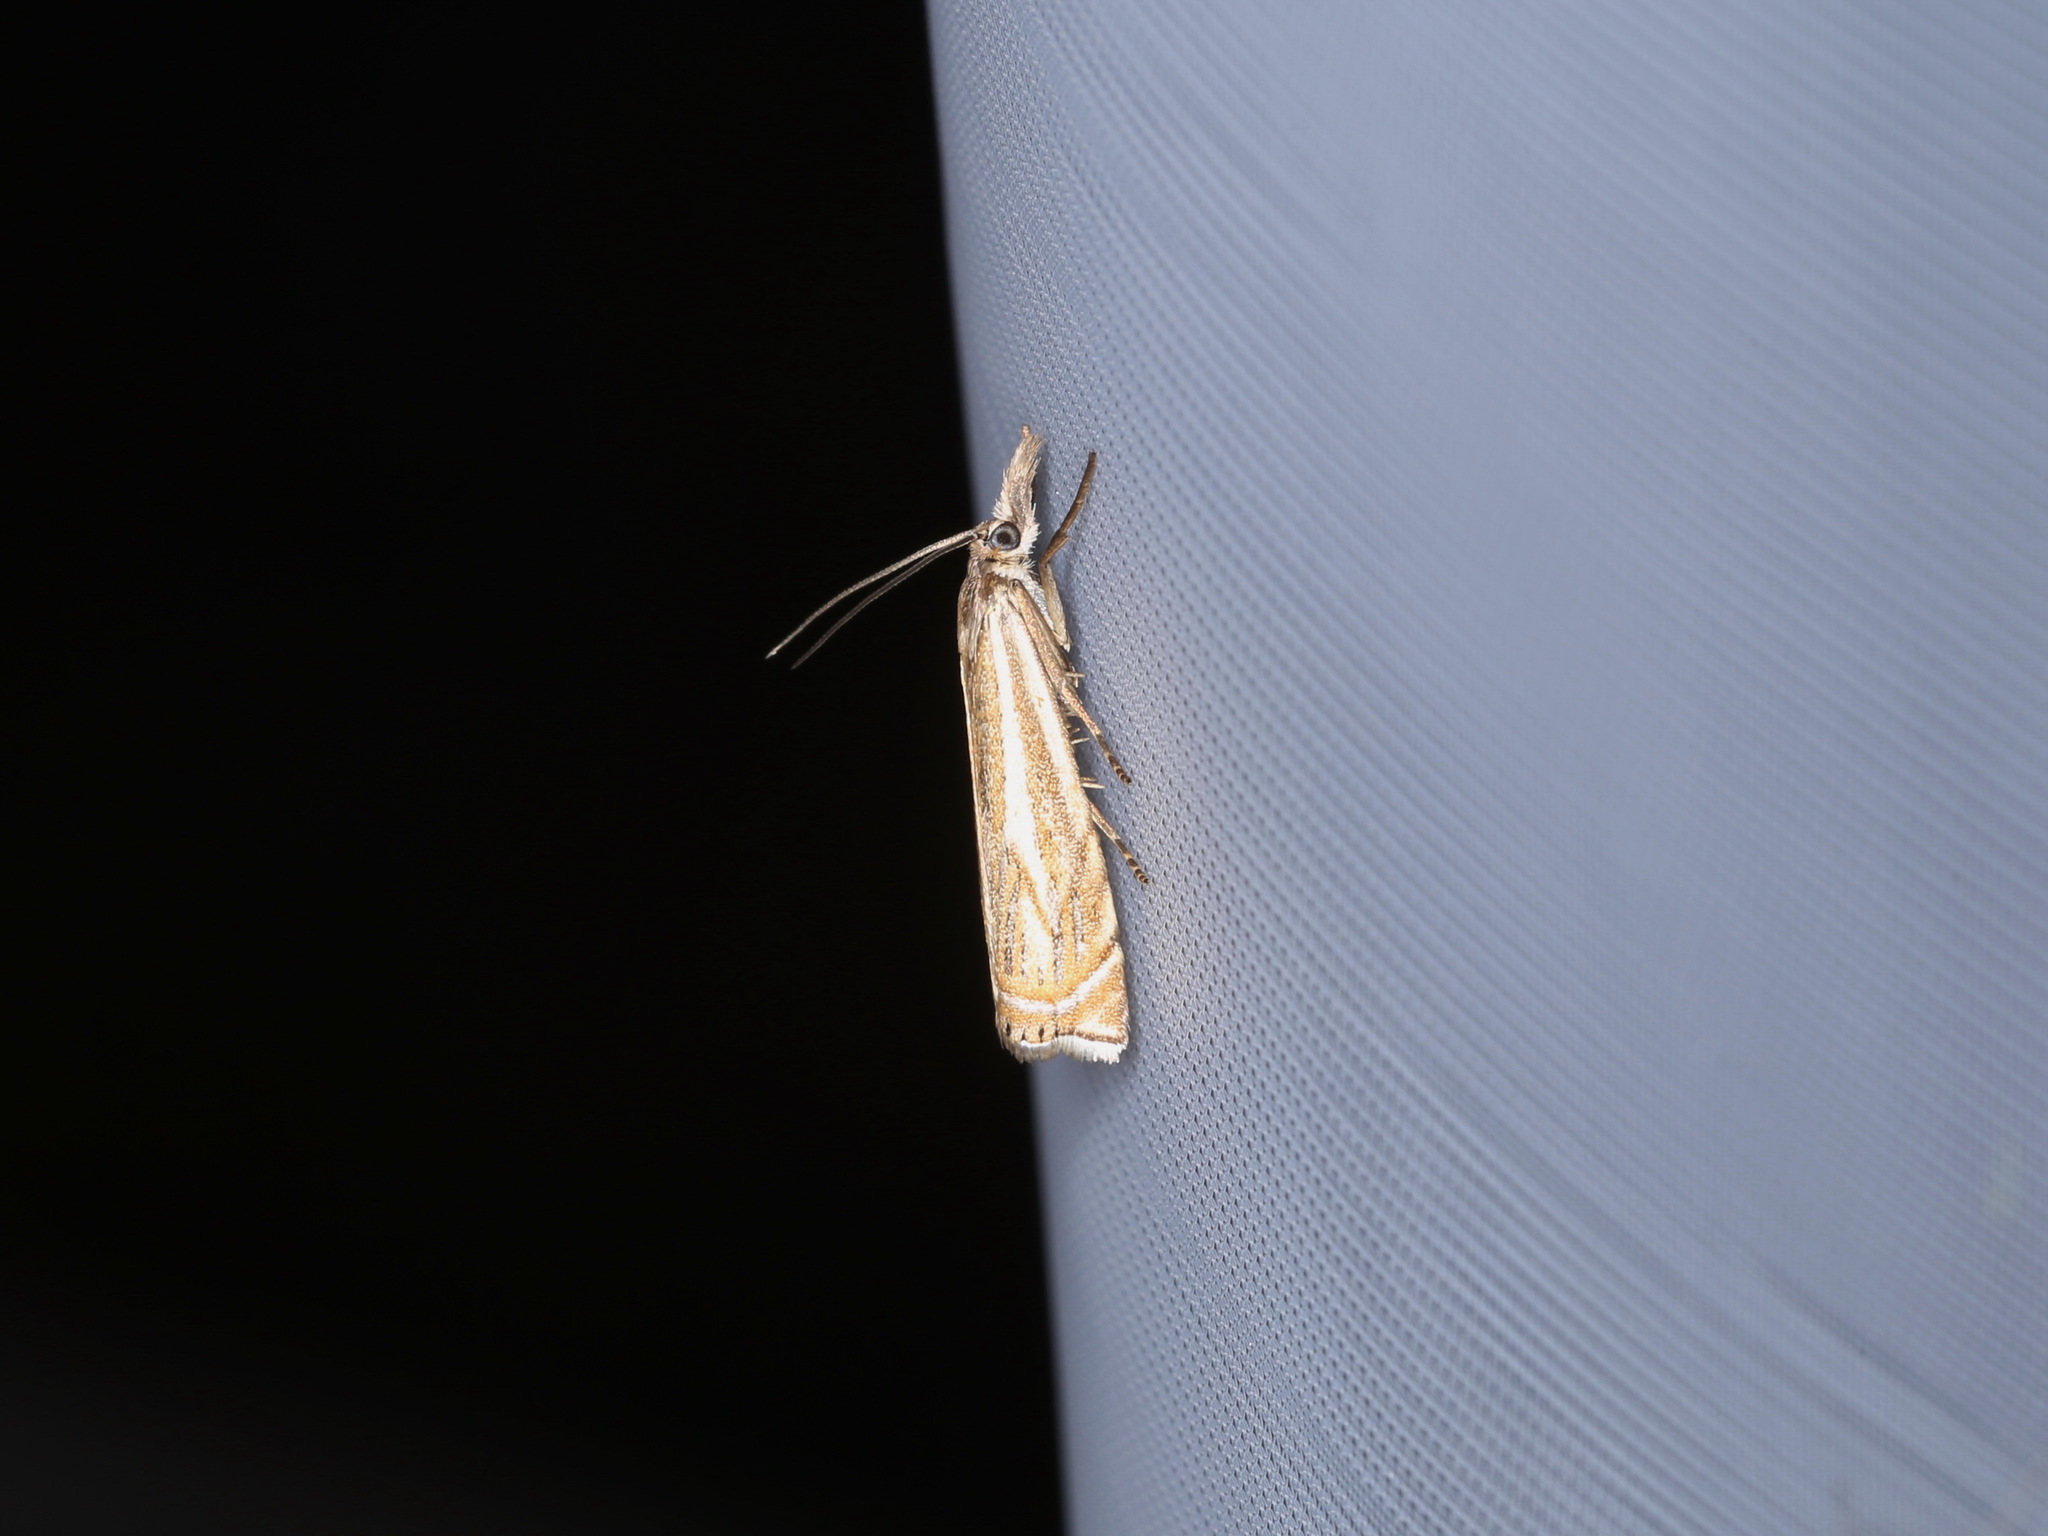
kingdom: Animalia
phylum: Arthropoda
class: Insecta
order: Lepidoptera
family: Crambidae
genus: Crambus
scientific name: Crambus nemorella
